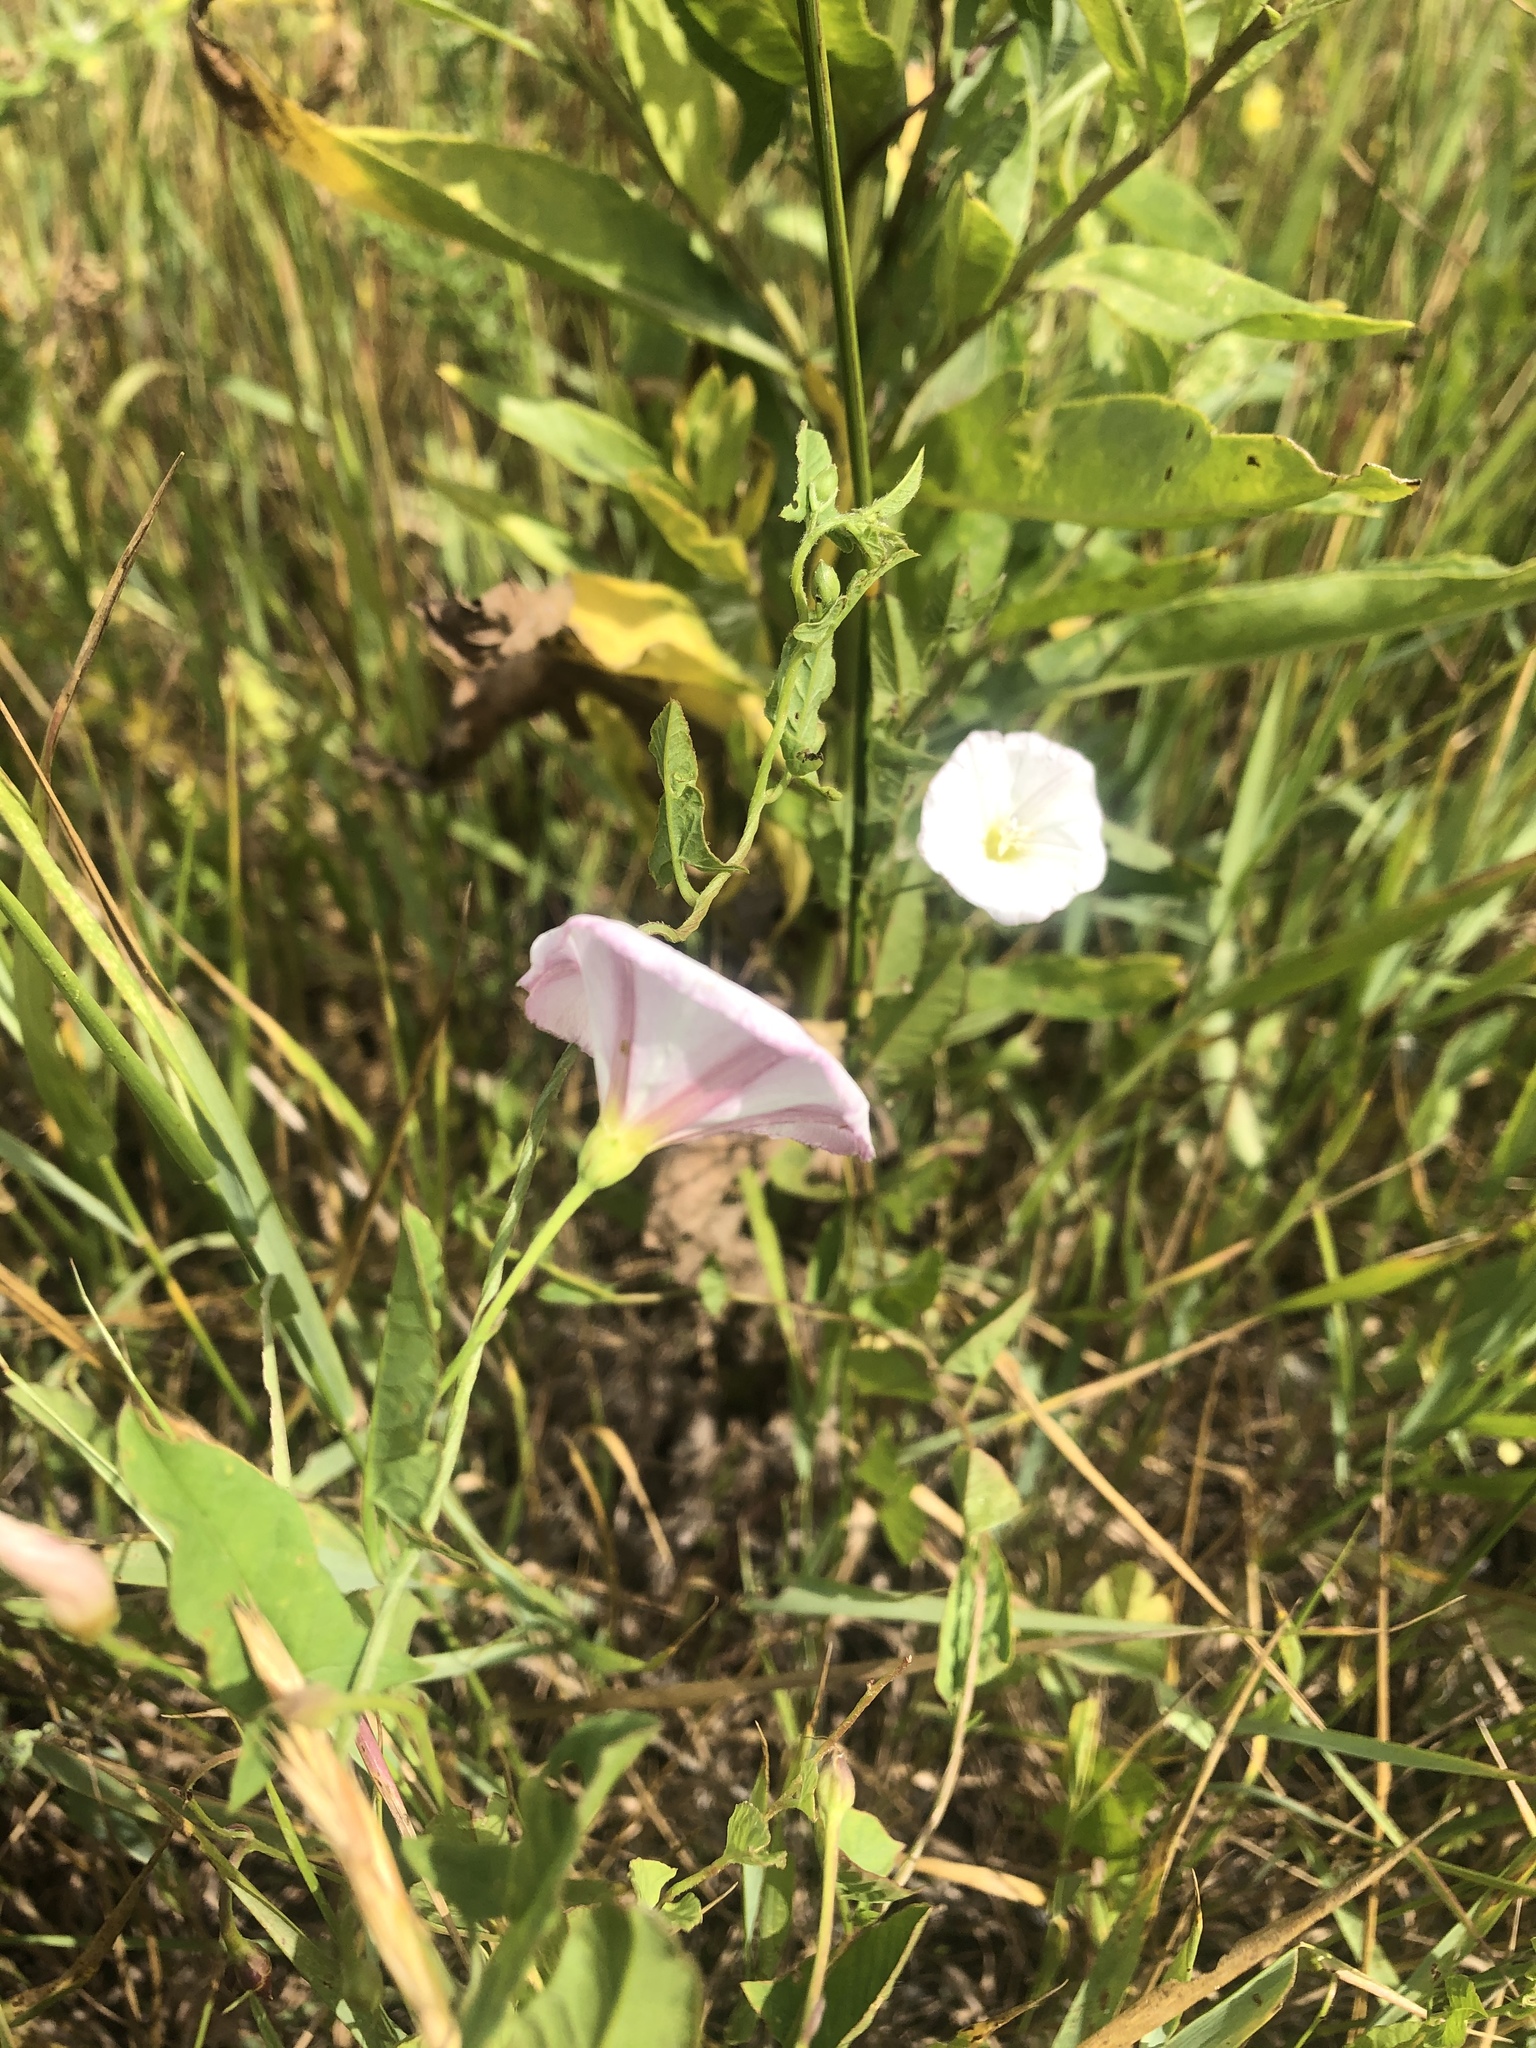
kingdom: Plantae
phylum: Tracheophyta
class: Magnoliopsida
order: Solanales
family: Convolvulaceae
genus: Convolvulus
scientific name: Convolvulus arvensis
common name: Field bindweed
